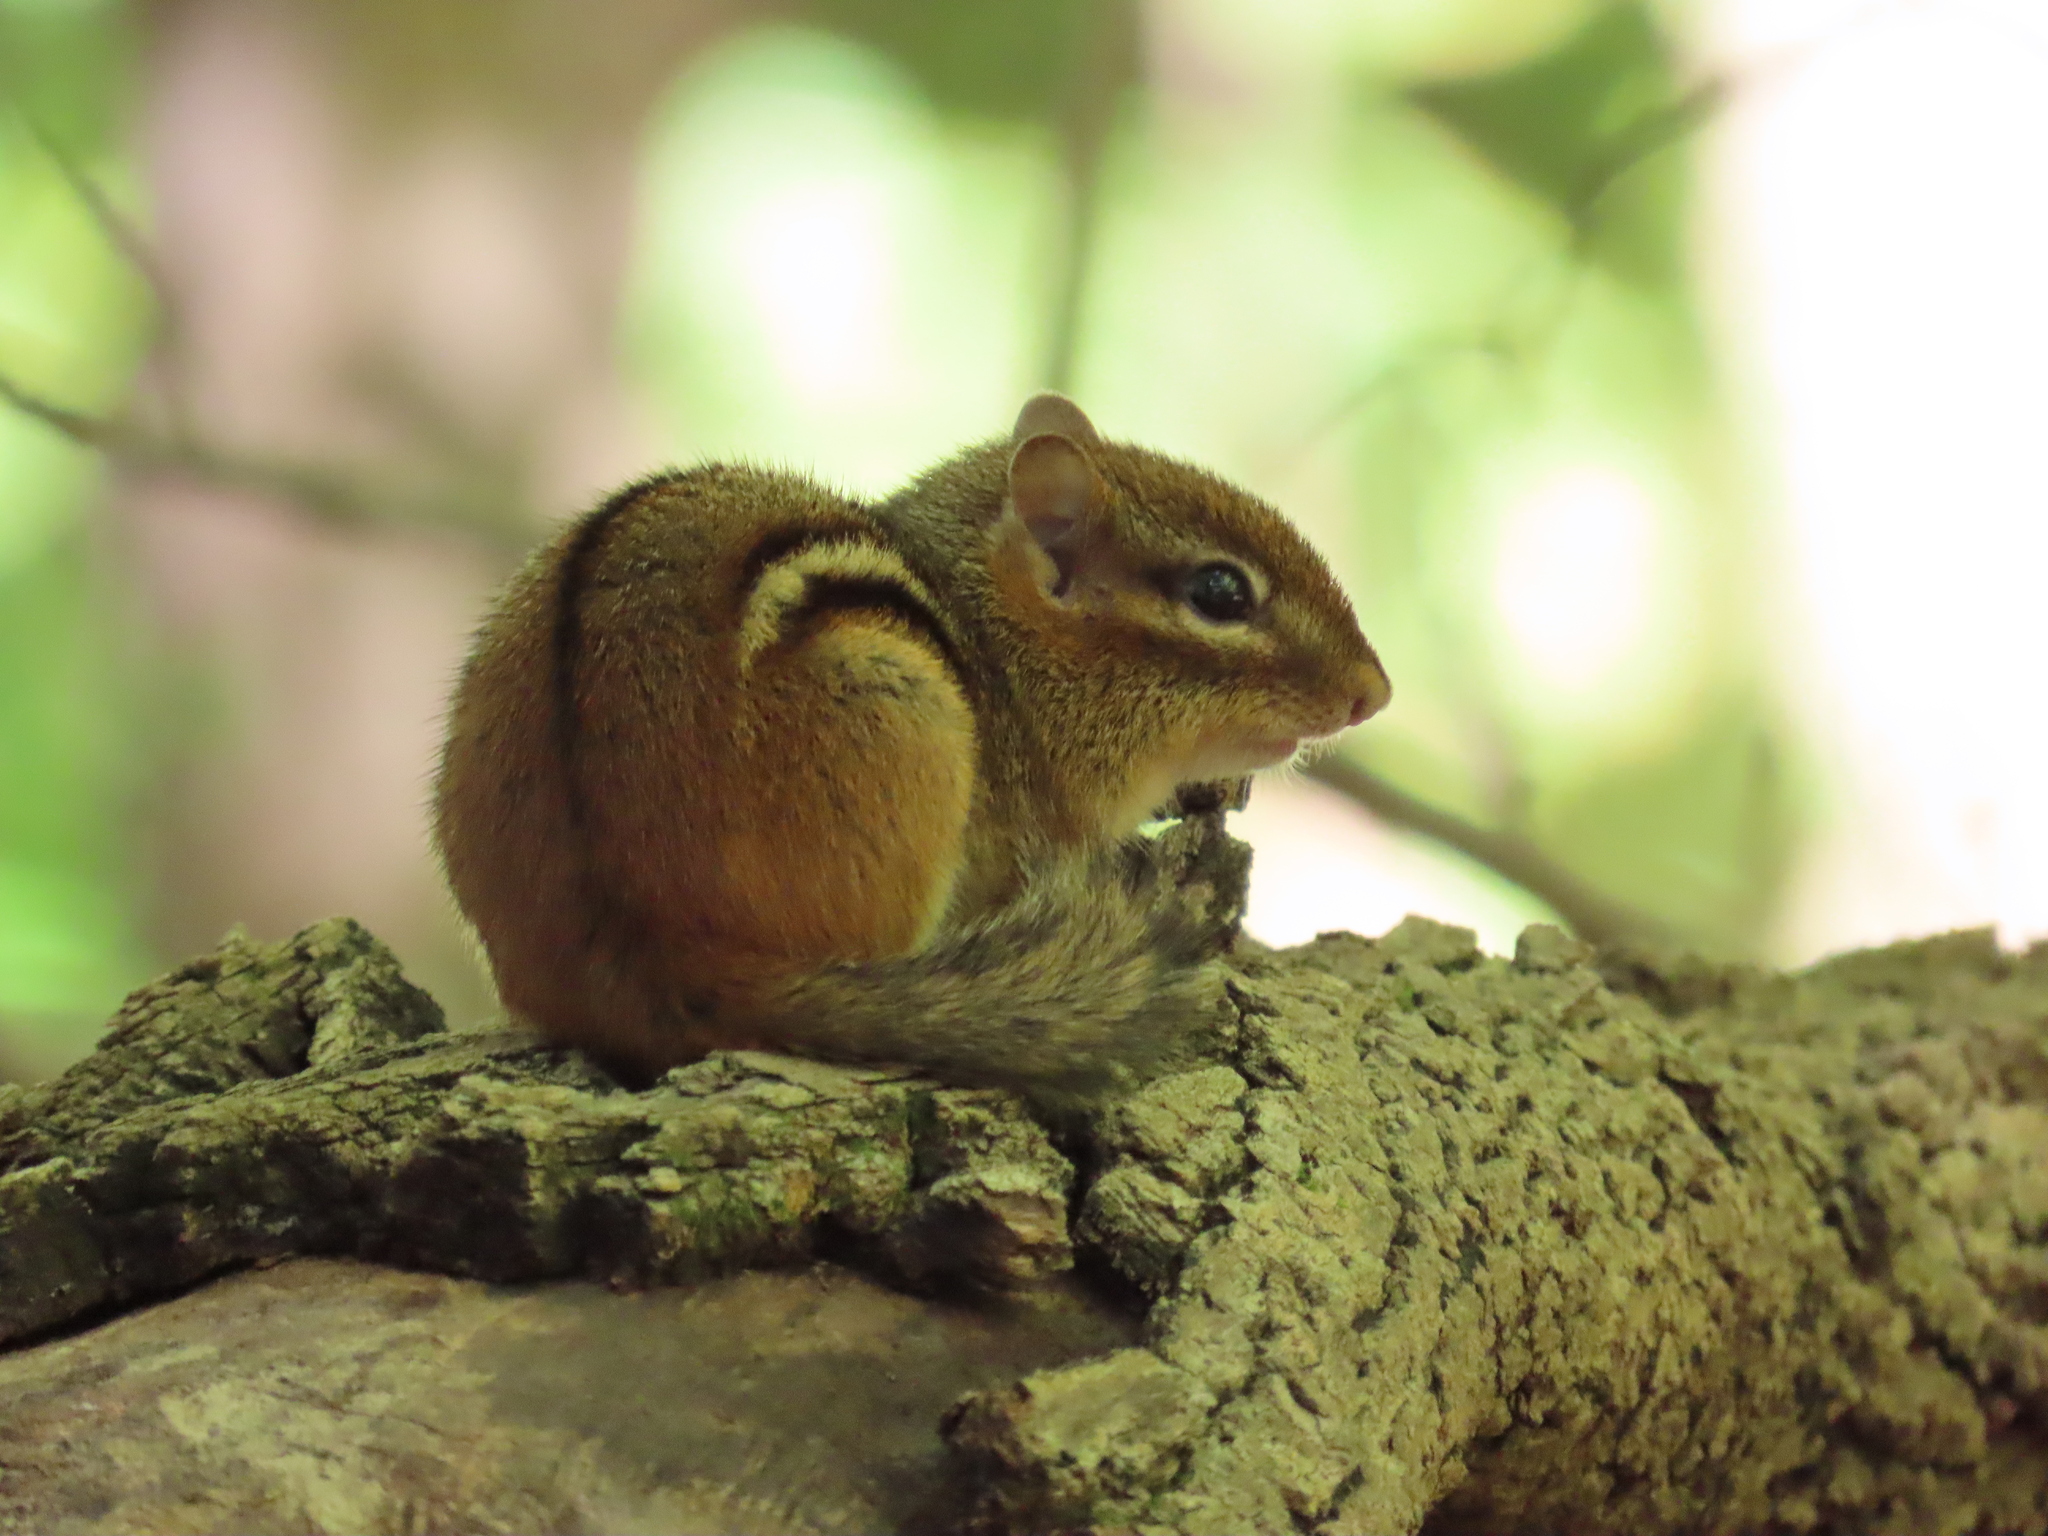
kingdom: Animalia
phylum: Chordata
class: Mammalia
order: Rodentia
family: Sciuridae
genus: Tamias
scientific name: Tamias striatus
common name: Eastern chipmunk
